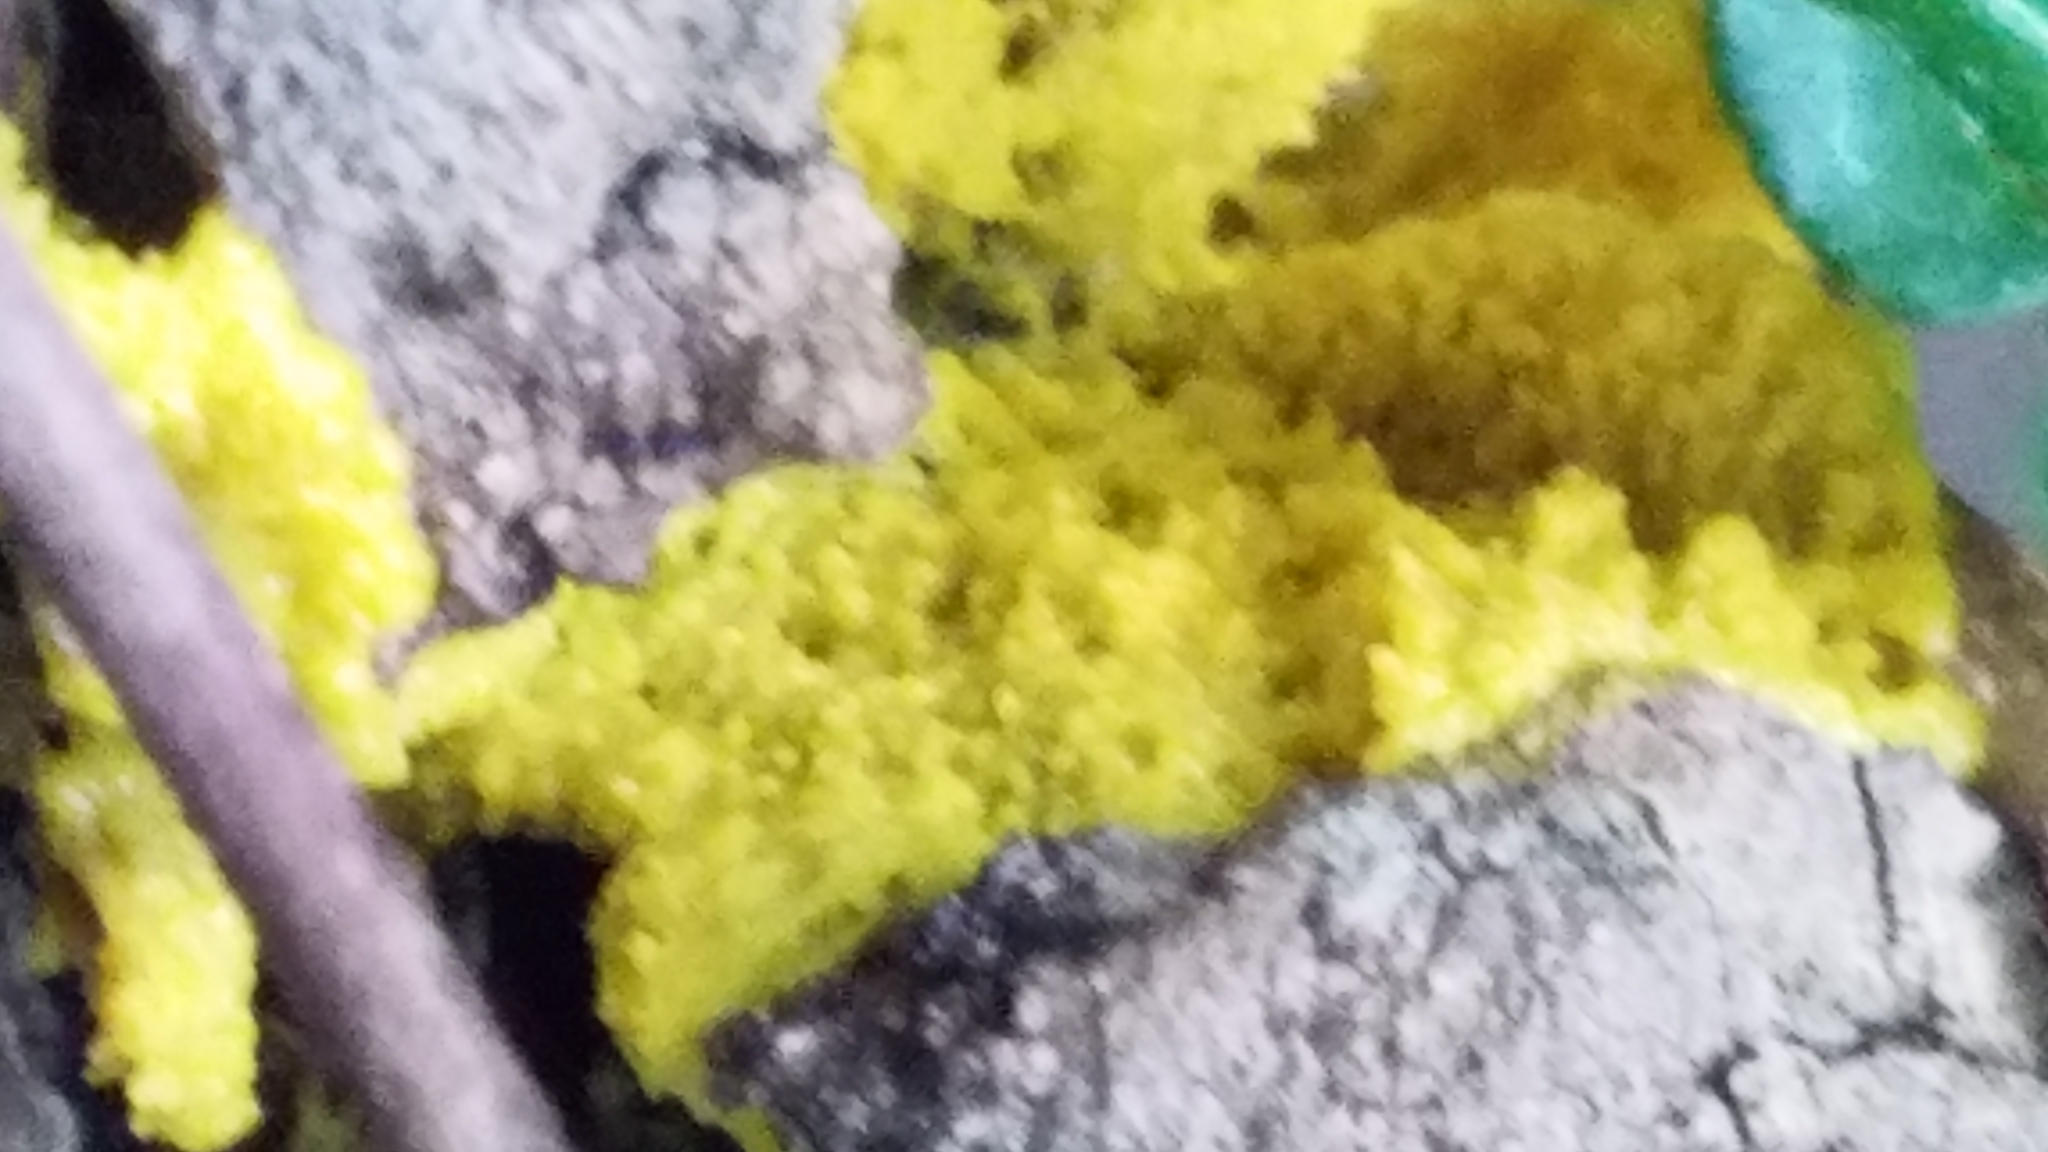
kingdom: Protozoa
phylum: Mycetozoa
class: Myxomycetes
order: Physarales
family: Physaraceae
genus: Physarum
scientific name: Physarum polycephalum
